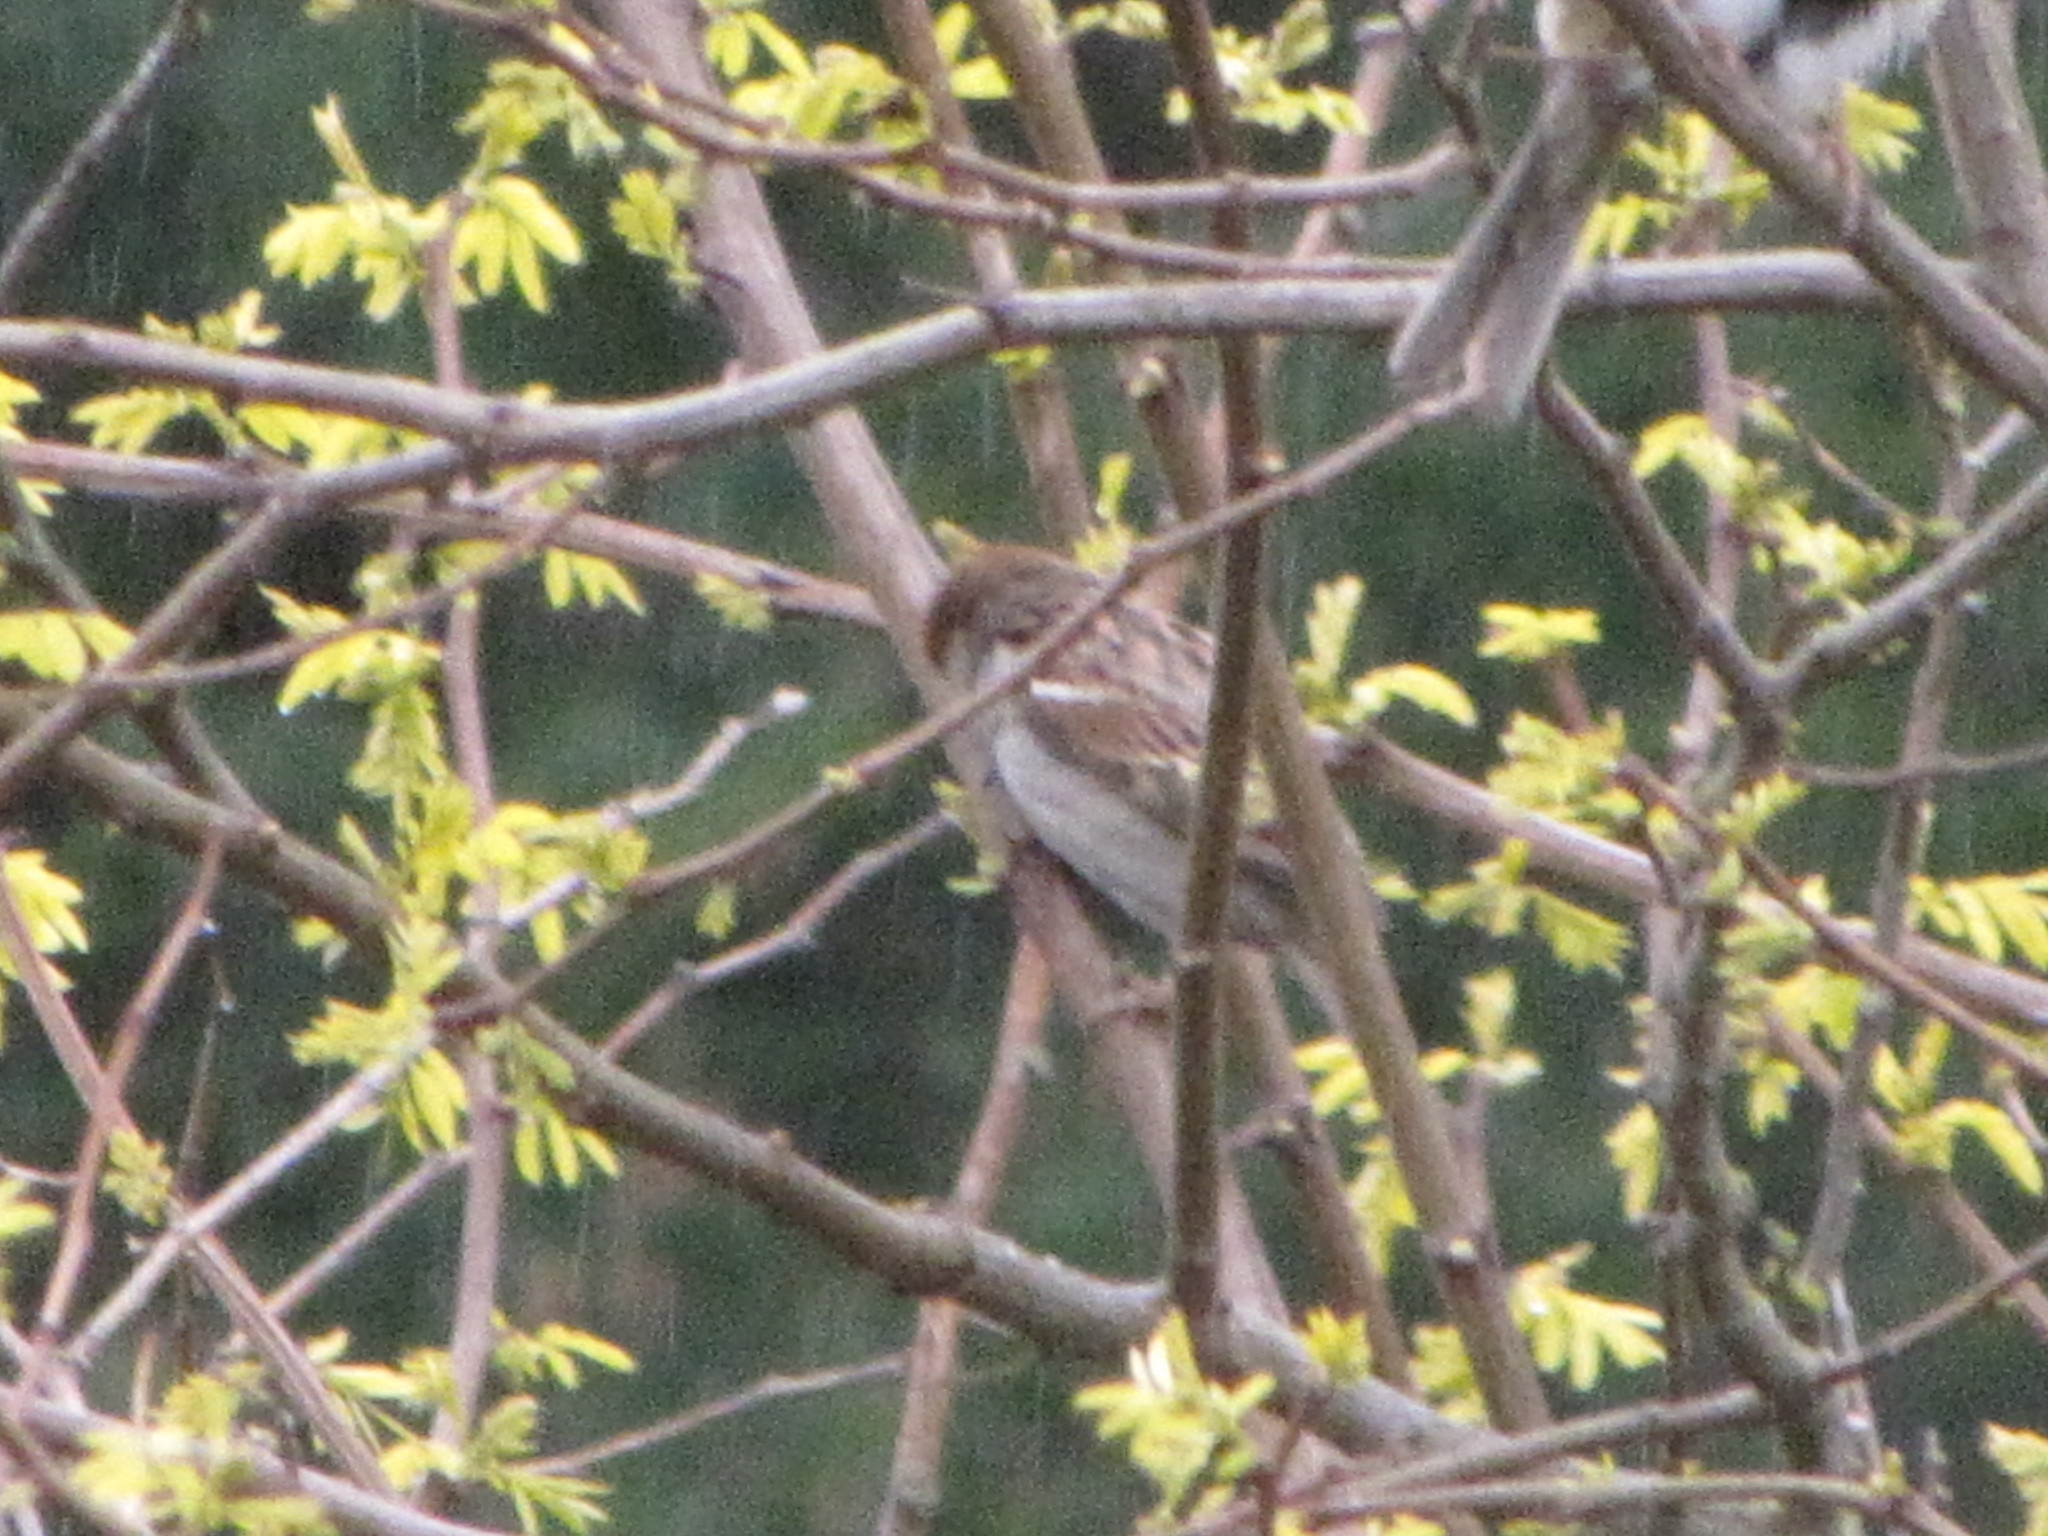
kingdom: Animalia
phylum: Chordata
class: Aves
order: Passeriformes
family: Passeridae
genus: Passer
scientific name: Passer domesticus
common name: House sparrow
